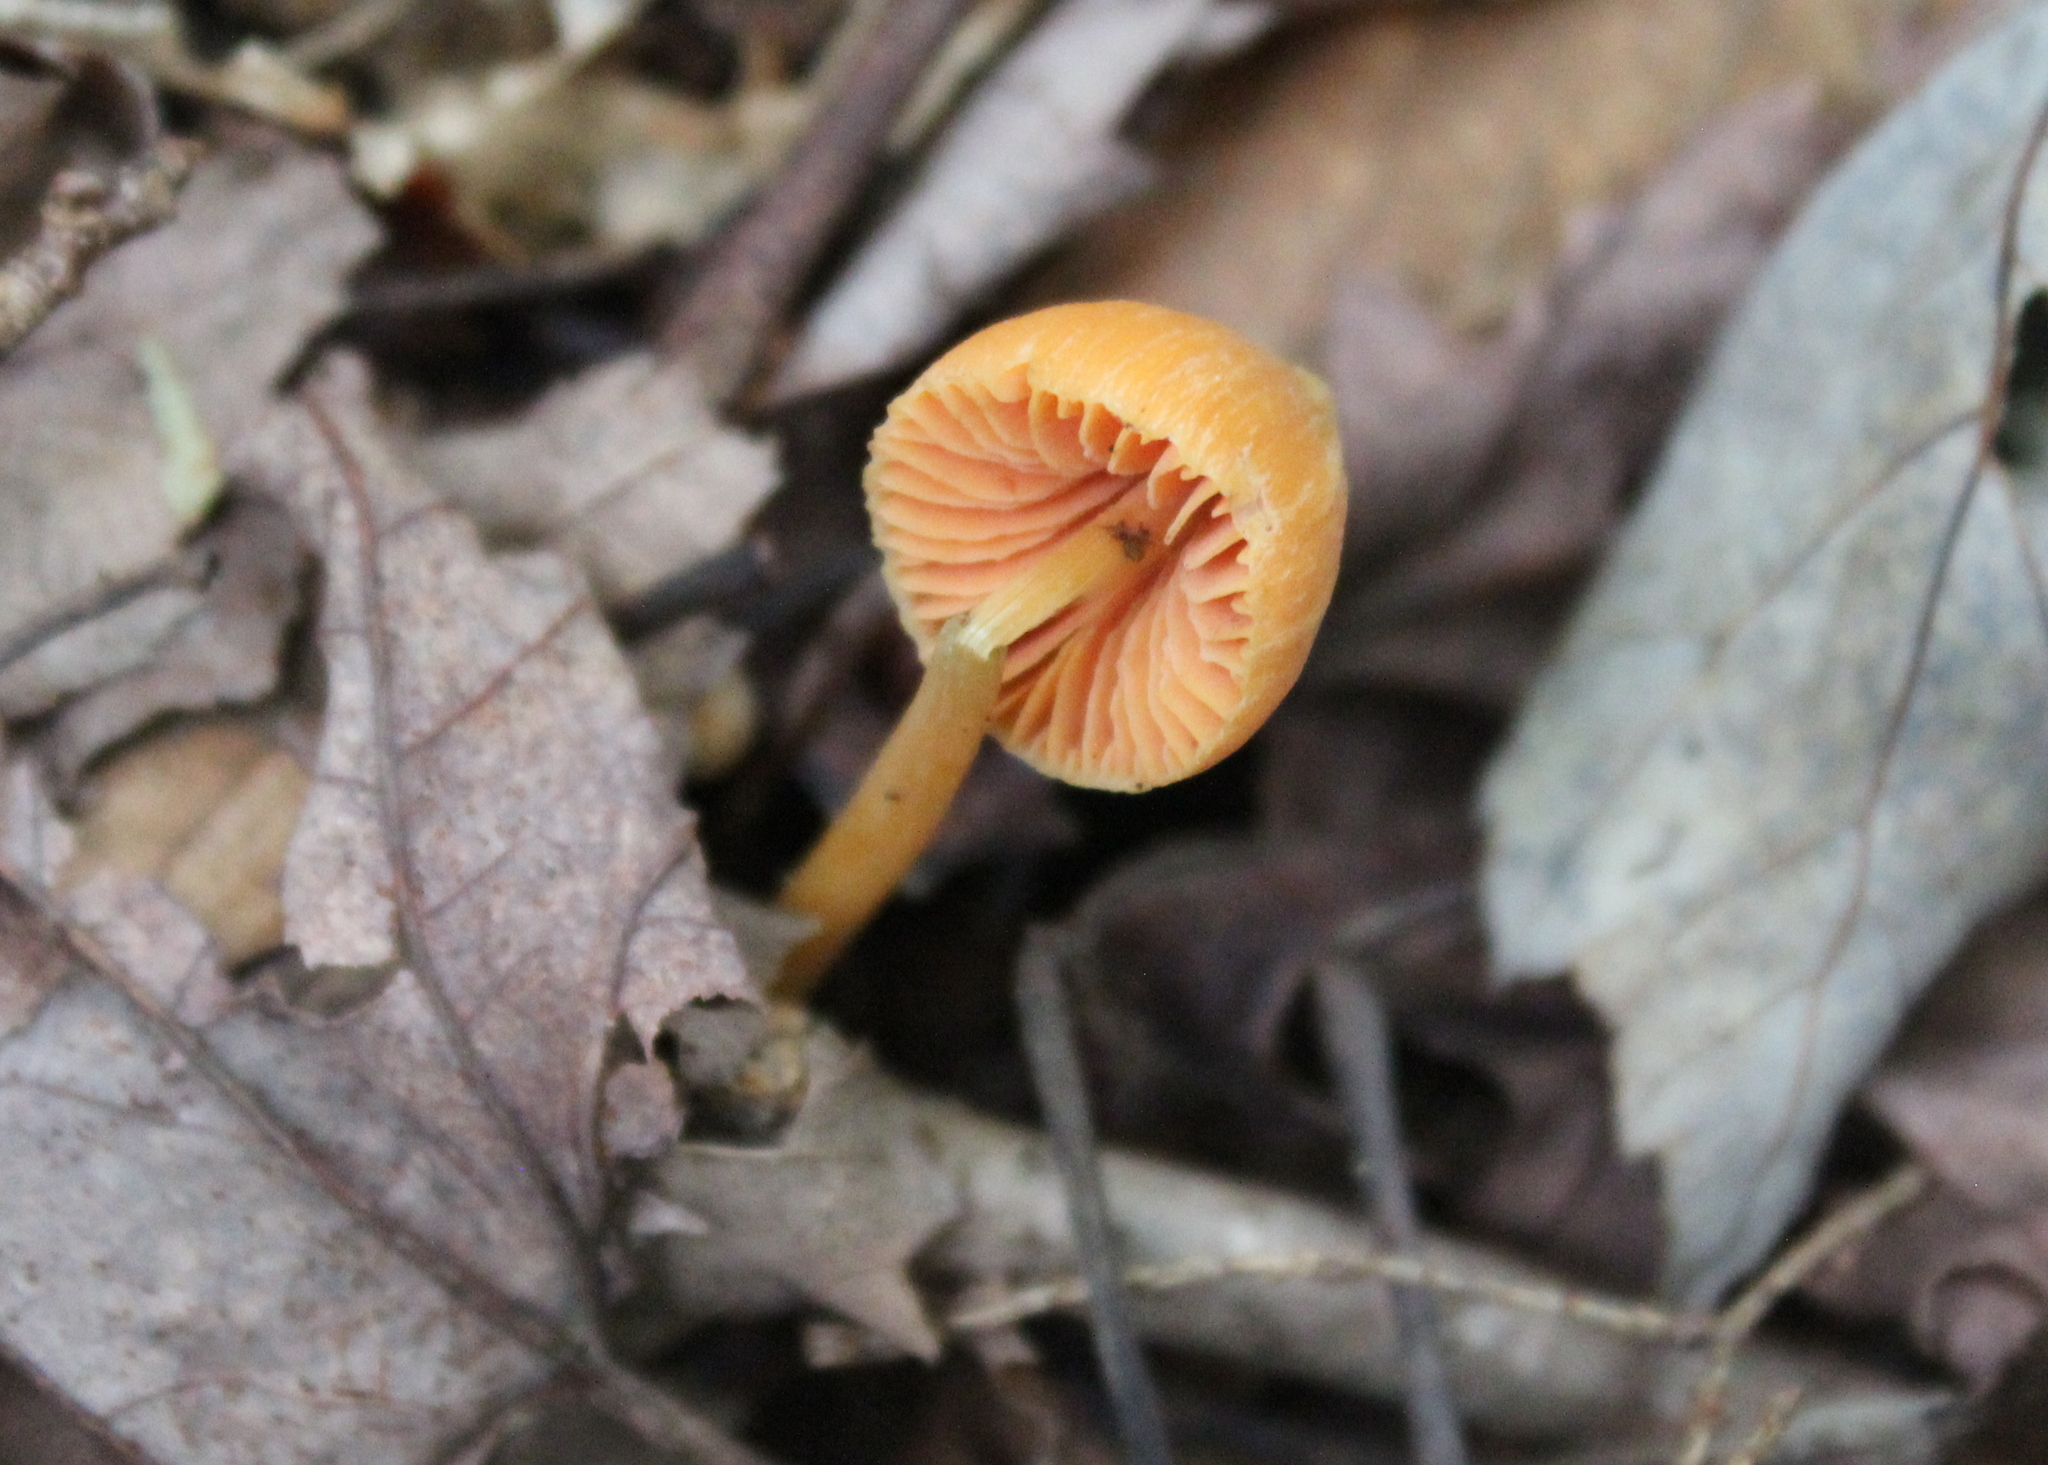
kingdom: Fungi
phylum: Basidiomycota
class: Agaricomycetes
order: Agaricales
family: Entolomataceae
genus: Entoloma
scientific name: Entoloma quadratum
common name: Salmon pinkgill
